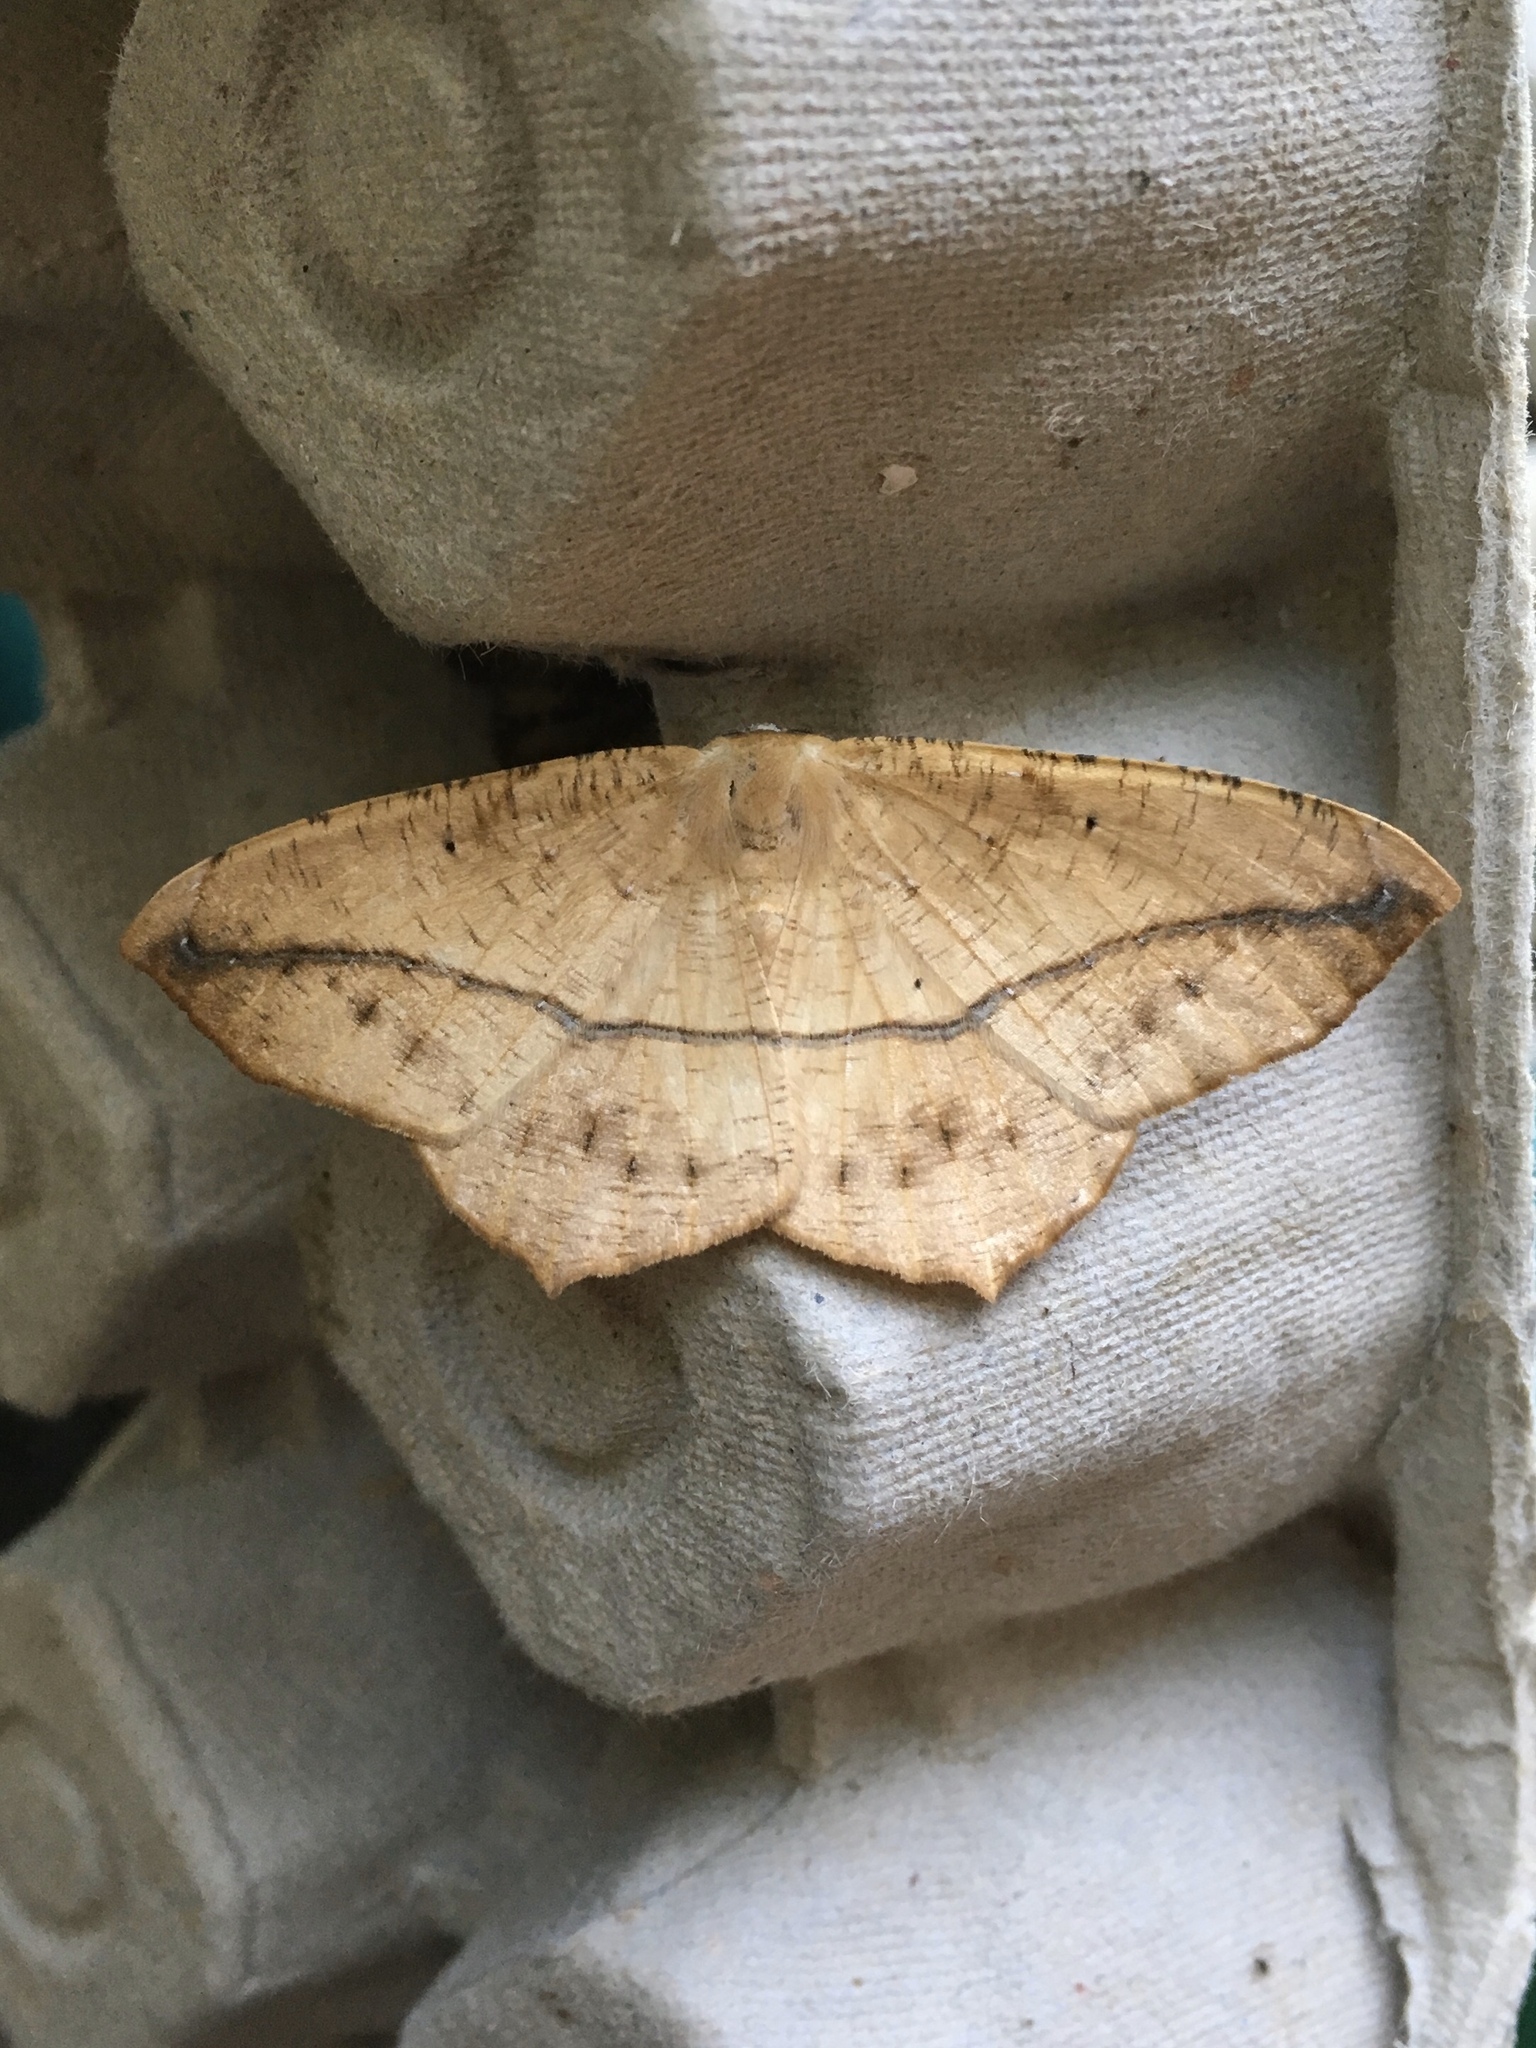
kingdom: Animalia
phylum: Arthropoda
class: Insecta
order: Lepidoptera
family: Geometridae
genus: Prochoerodes
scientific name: Prochoerodes lineola
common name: Large maple spanworm
